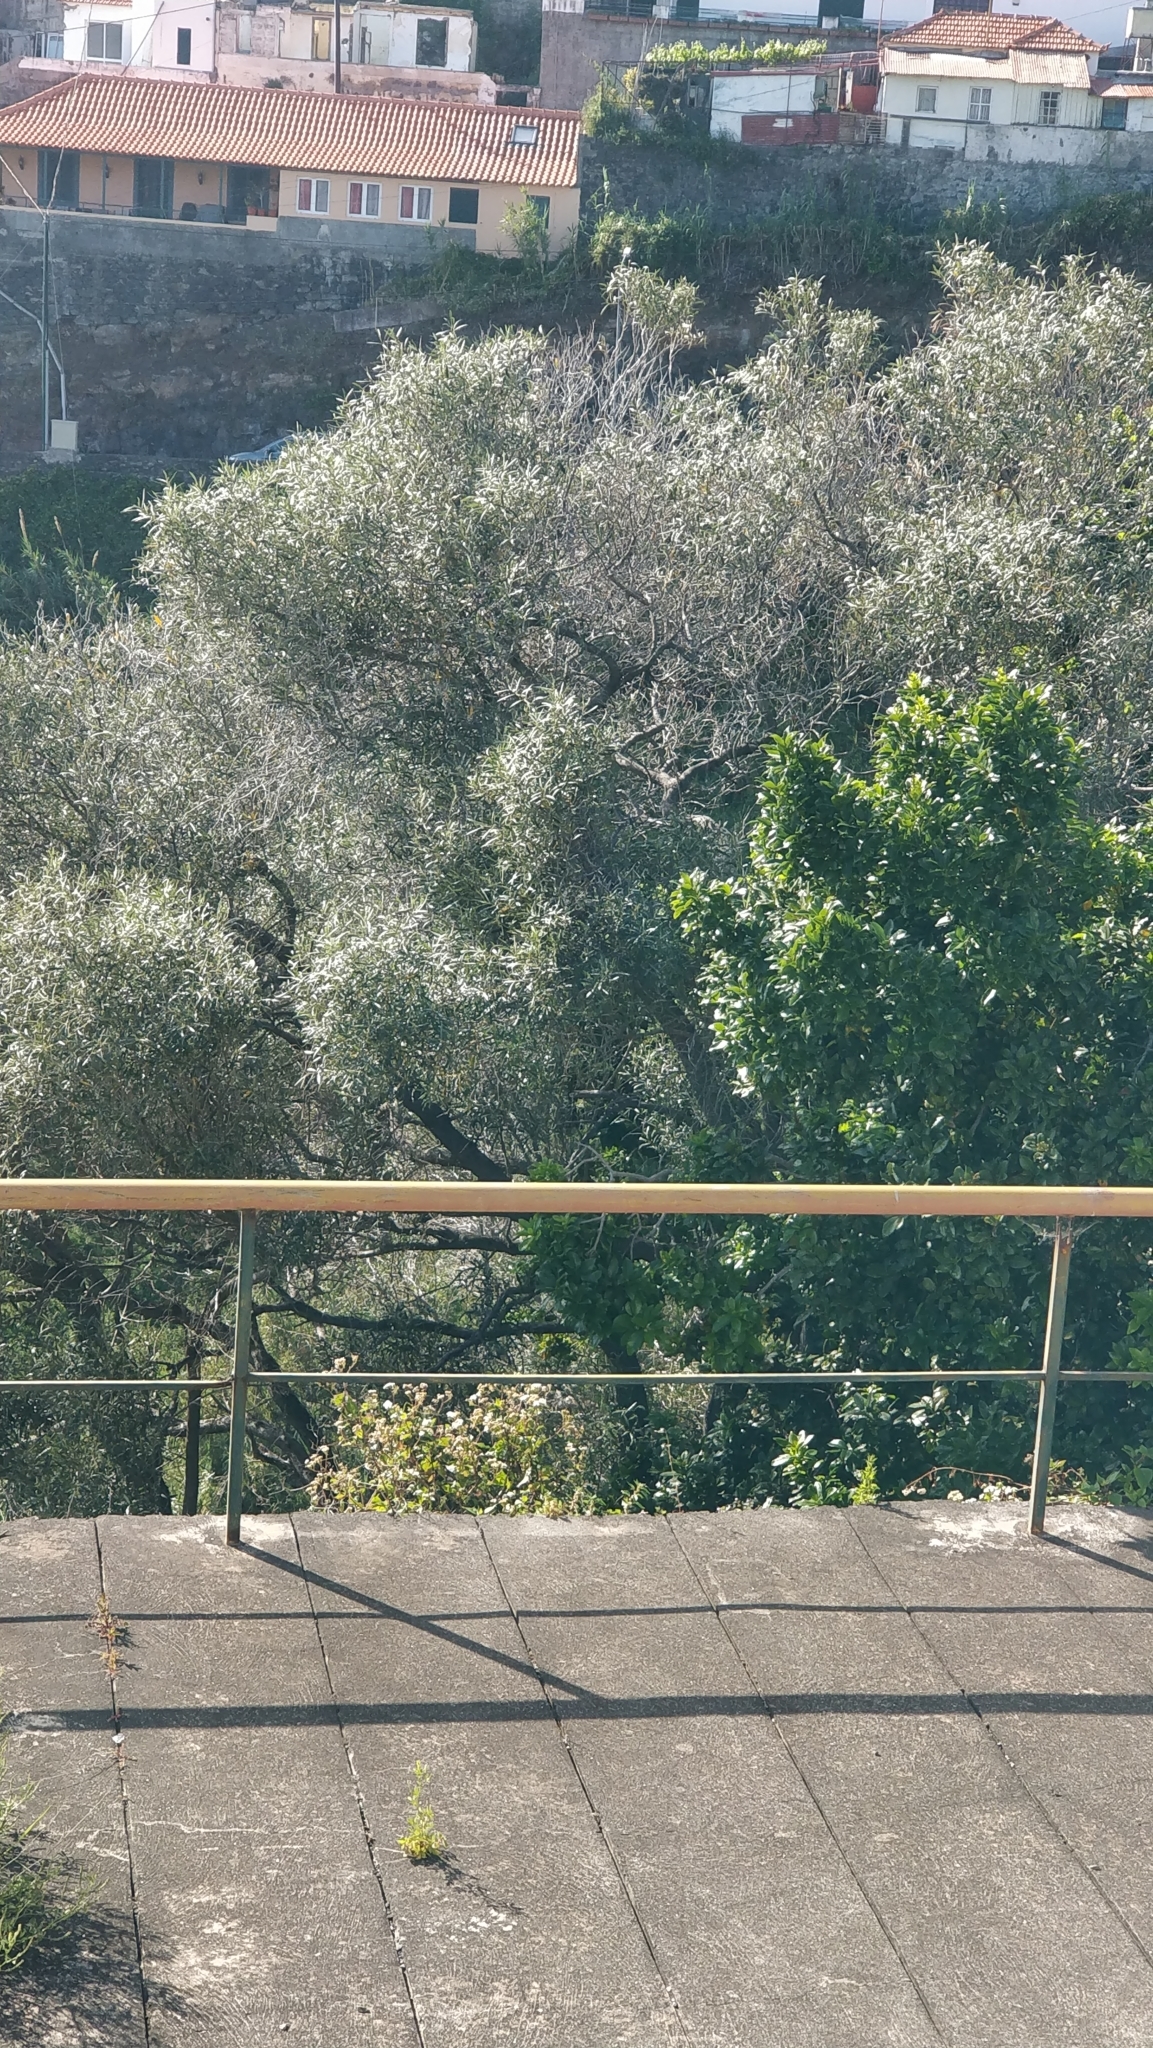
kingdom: Plantae
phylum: Tracheophyta
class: Magnoliopsida
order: Lamiales
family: Oleaceae
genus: Olea
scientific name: Olea europaea
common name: Olive
